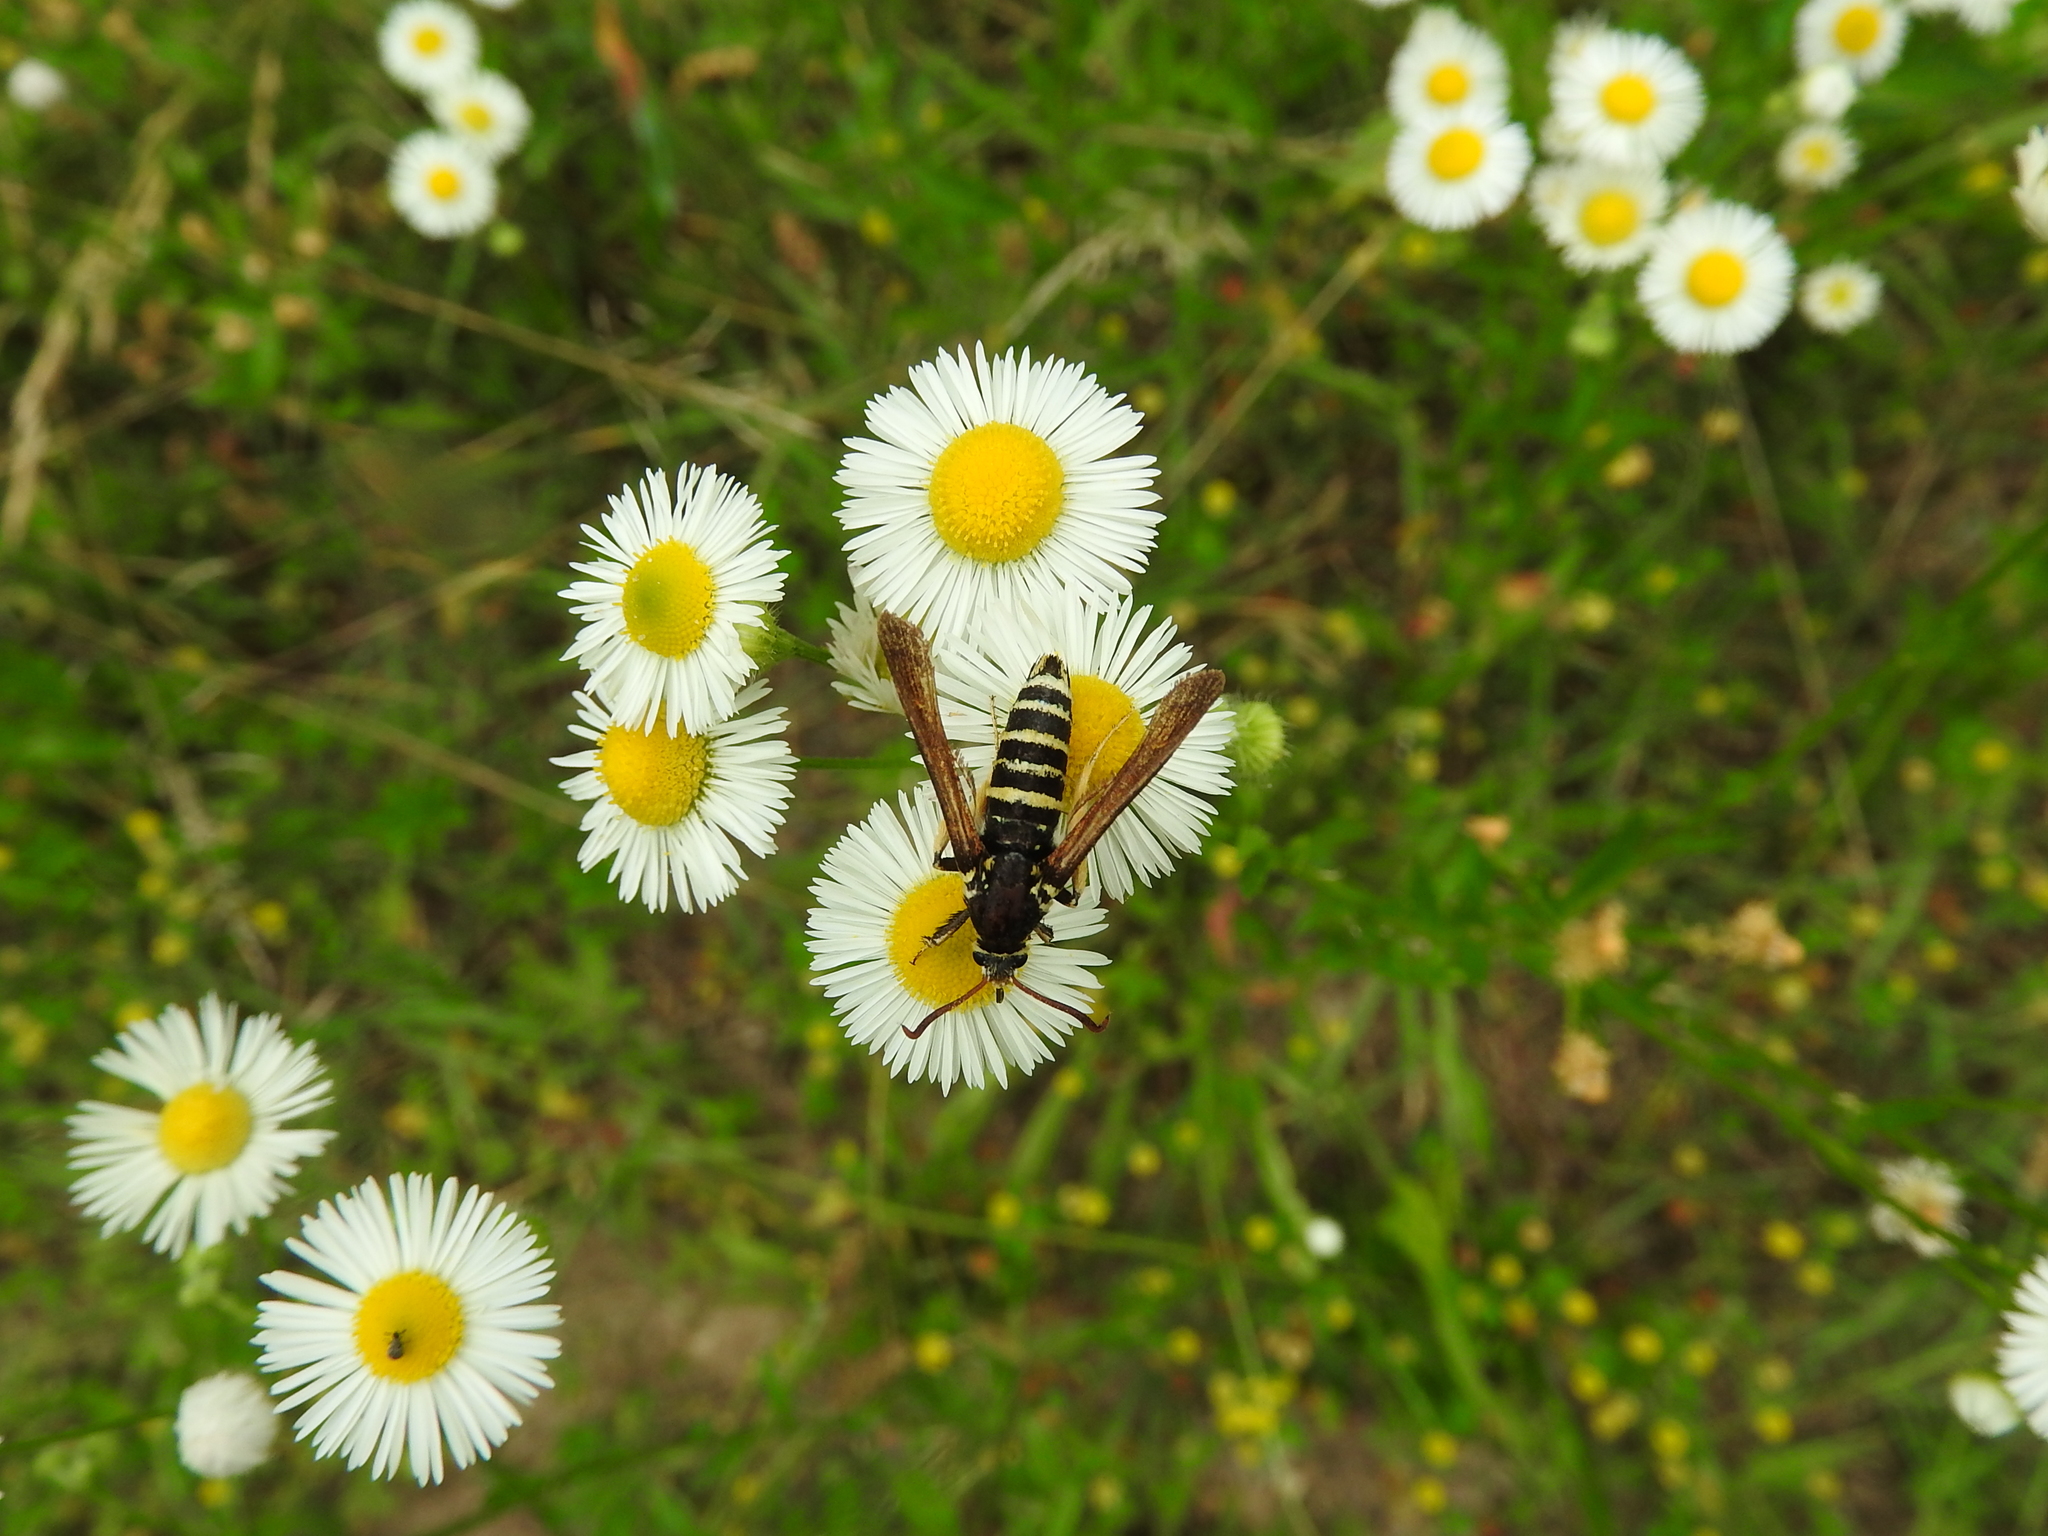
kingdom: Animalia
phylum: Arthropoda
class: Insecta
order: Lepidoptera
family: Sesiidae
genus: Paranthrene
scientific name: Paranthrene tabaniformis
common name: Dusky clearwing
